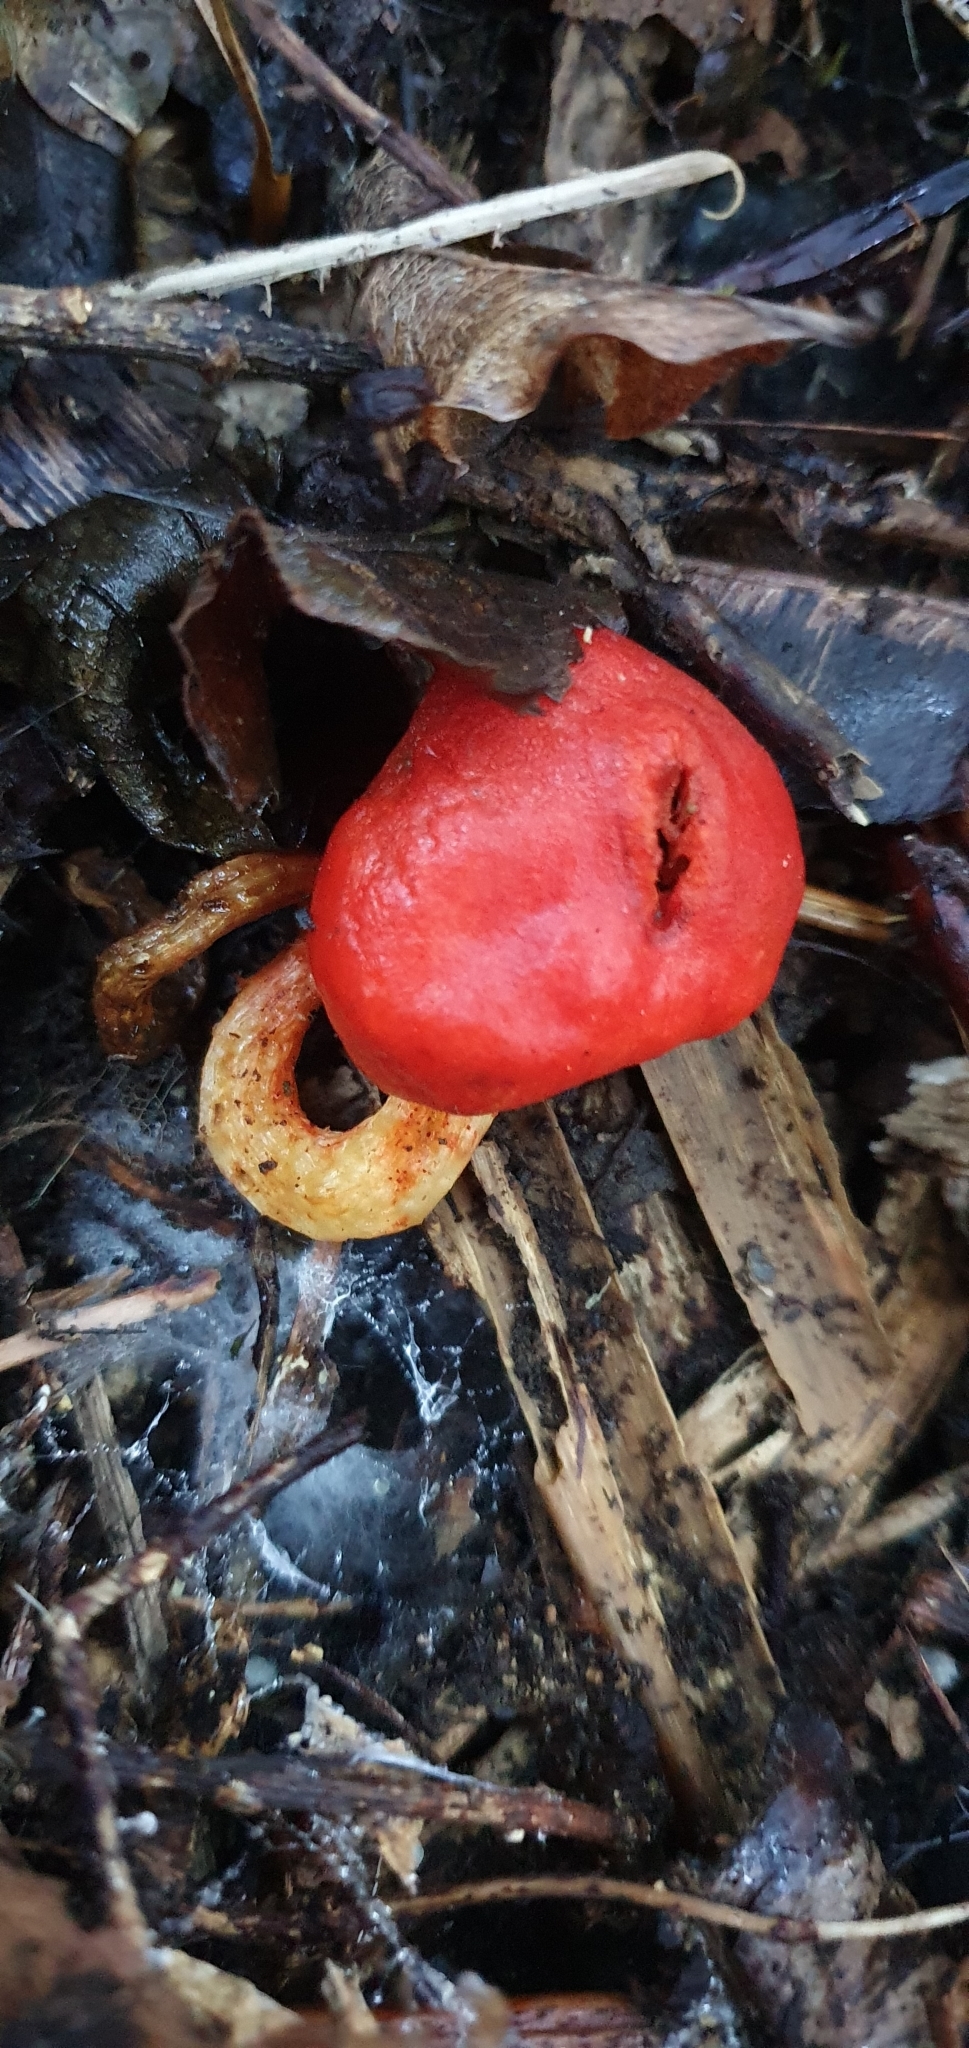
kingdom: Fungi
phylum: Basidiomycota
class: Agaricomycetes
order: Agaricales
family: Strophariaceae
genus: Leratiomyces
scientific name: Leratiomyces erythrocephalus
